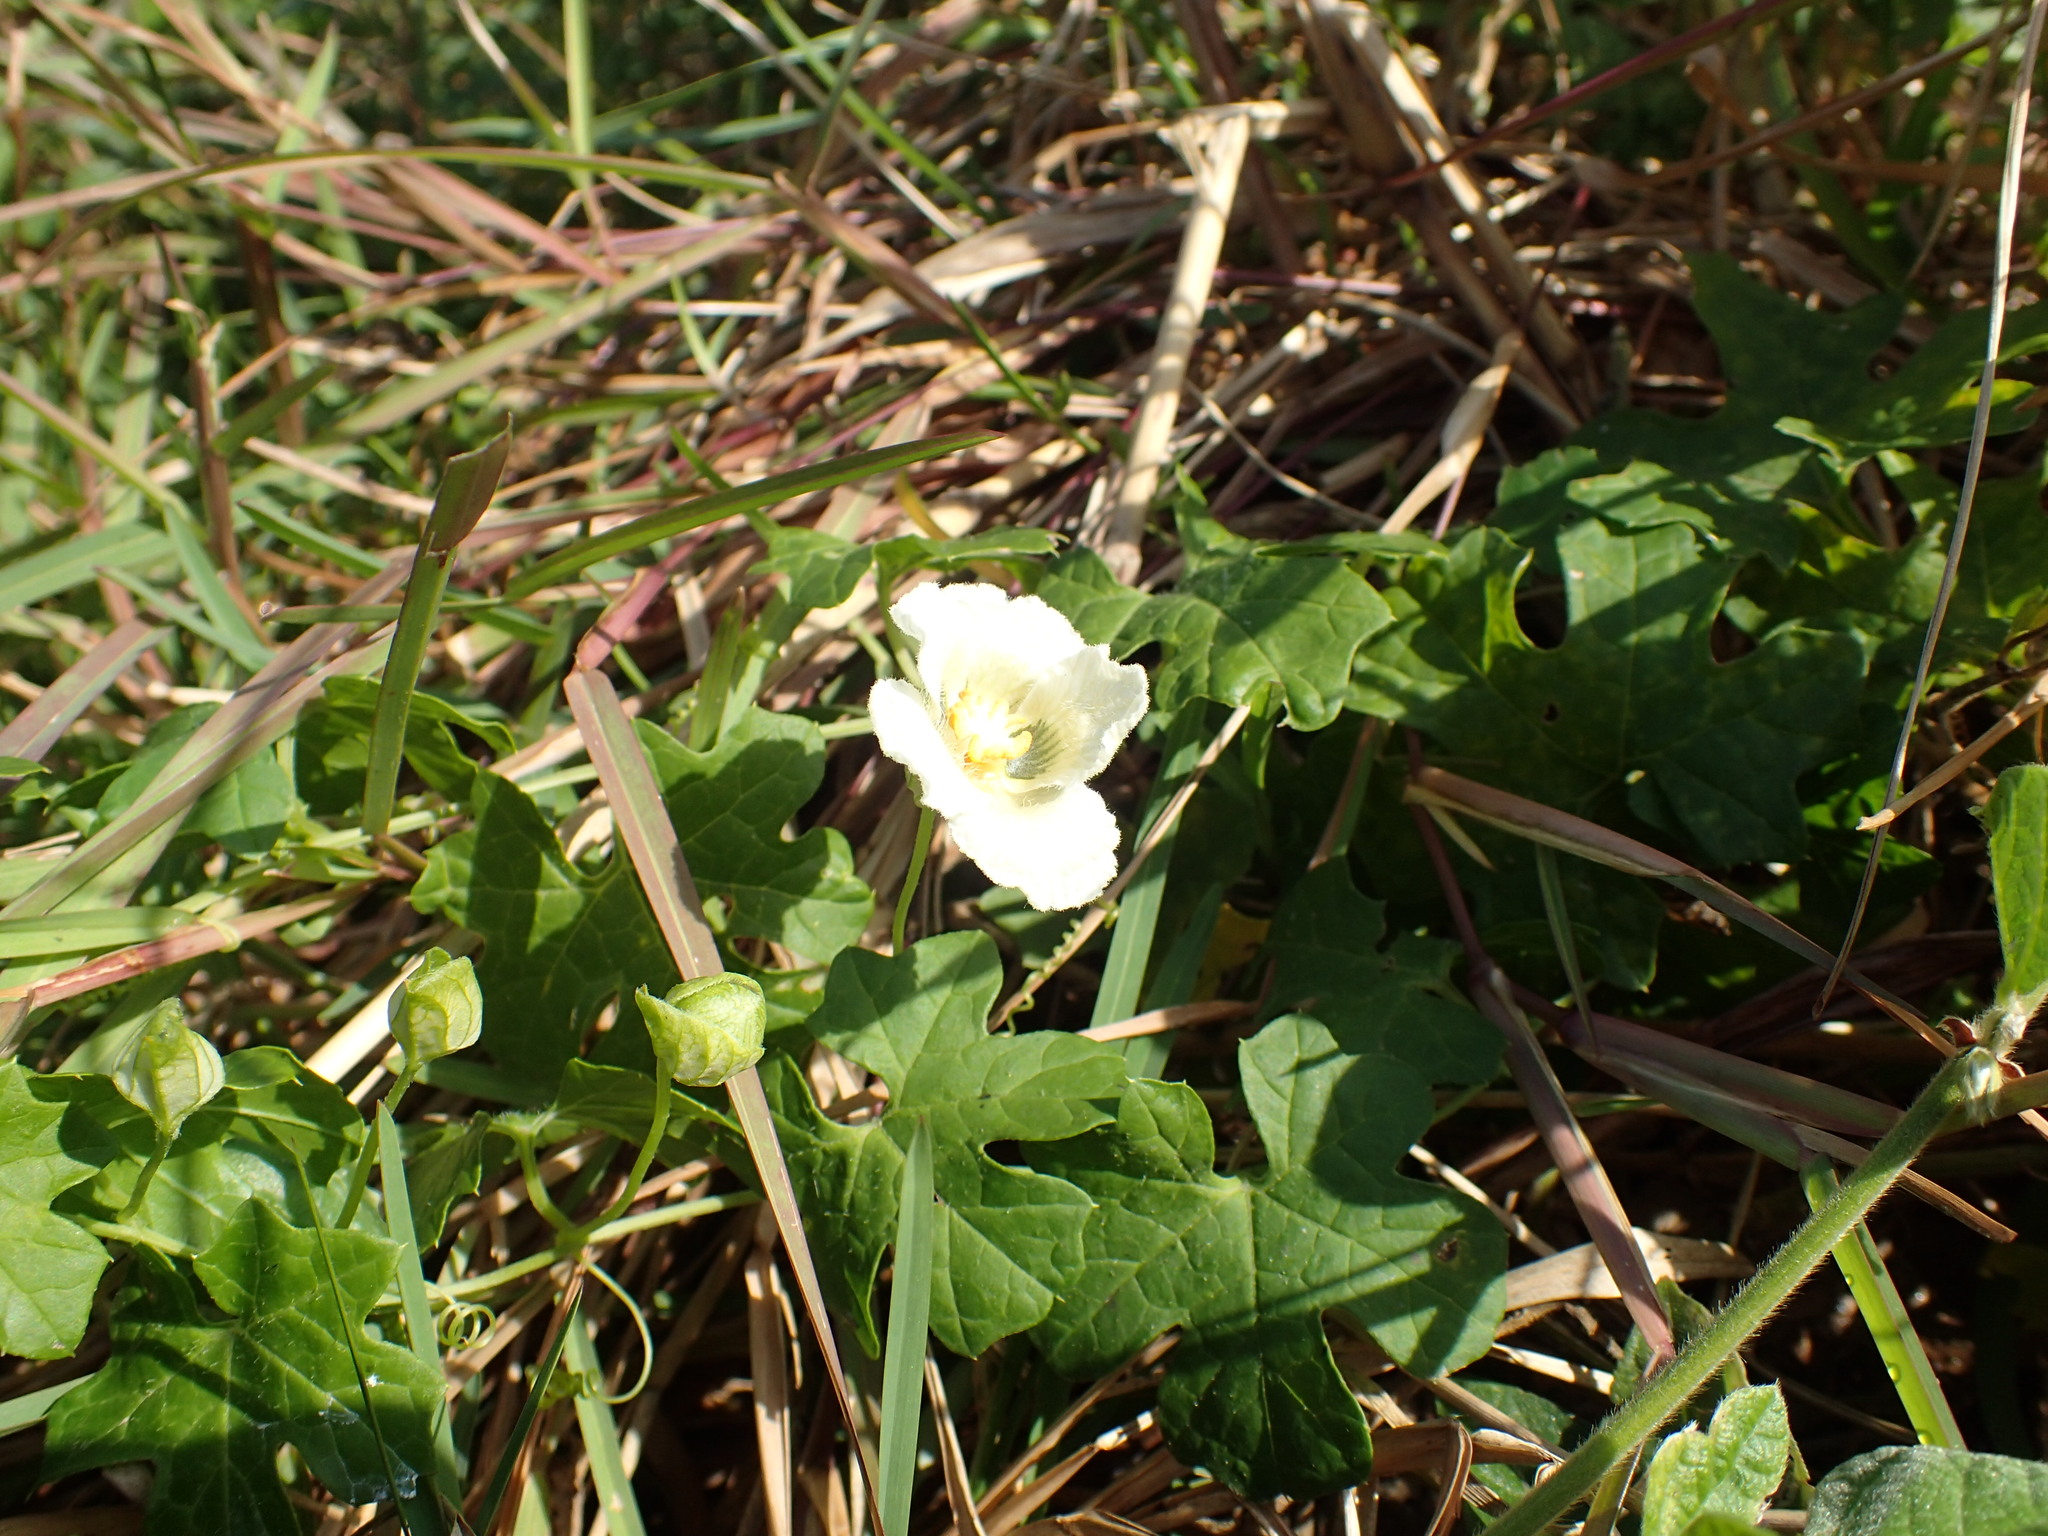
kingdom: Plantae
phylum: Tracheophyta
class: Magnoliopsida
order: Cucurbitales
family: Cucurbitaceae
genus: Momordica
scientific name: Momordica balsamina
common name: Southern balsampear
